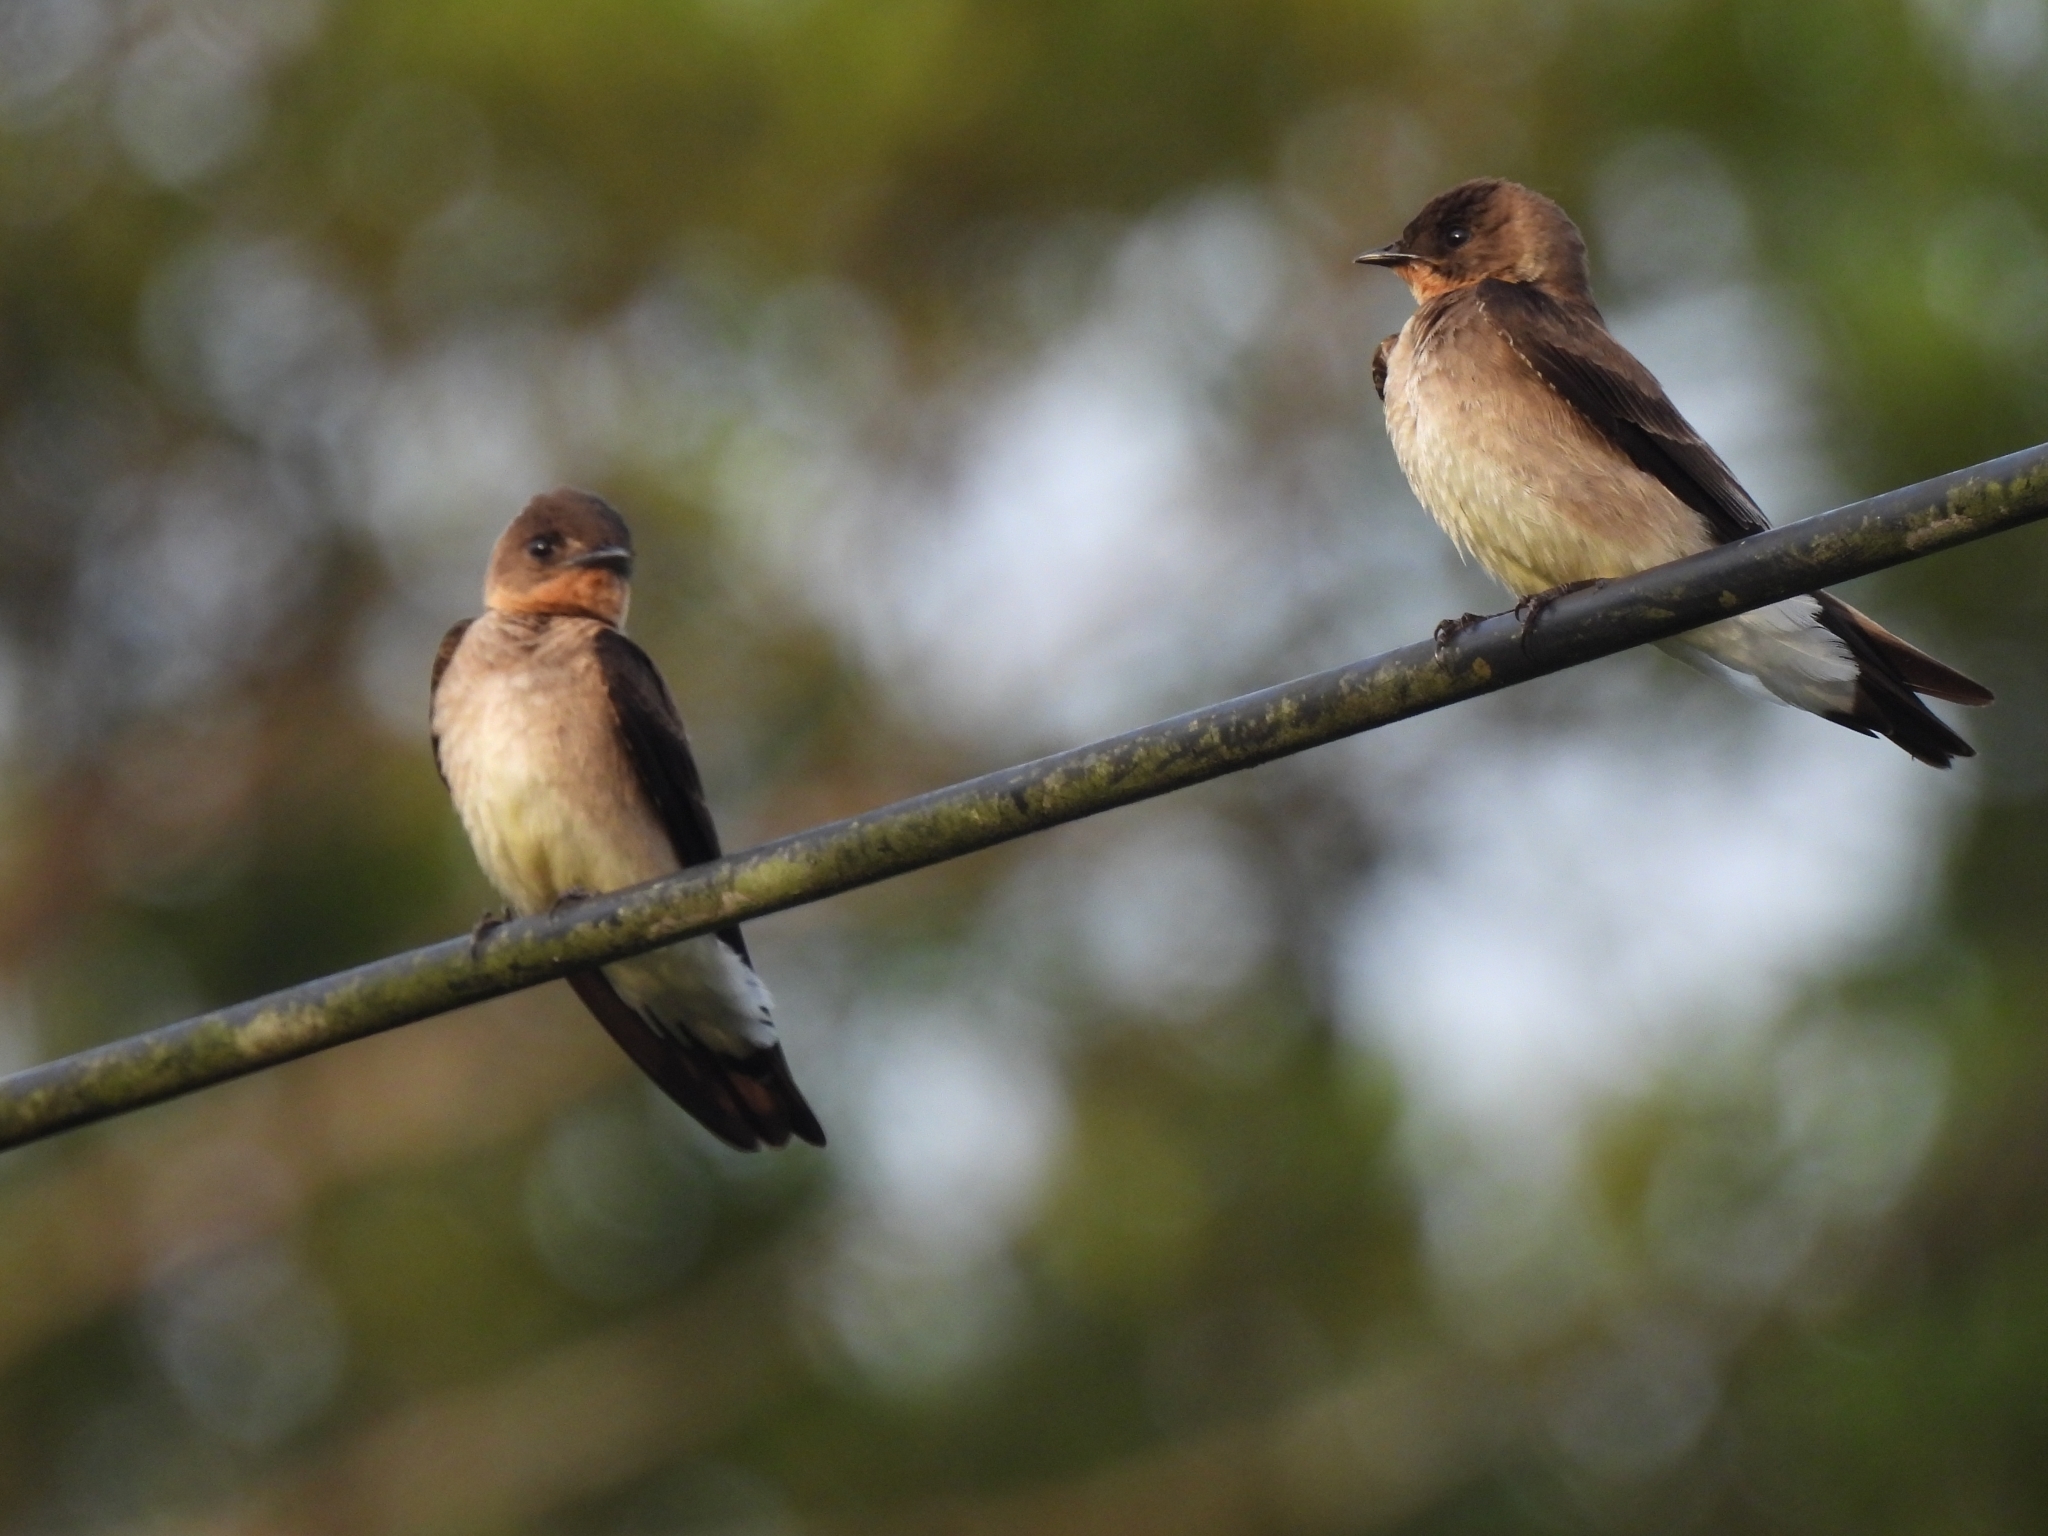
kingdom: Animalia
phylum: Chordata
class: Aves
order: Passeriformes
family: Hirundinidae
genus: Stelgidopteryx
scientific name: Stelgidopteryx ruficollis
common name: Southern rough-winged swallow
